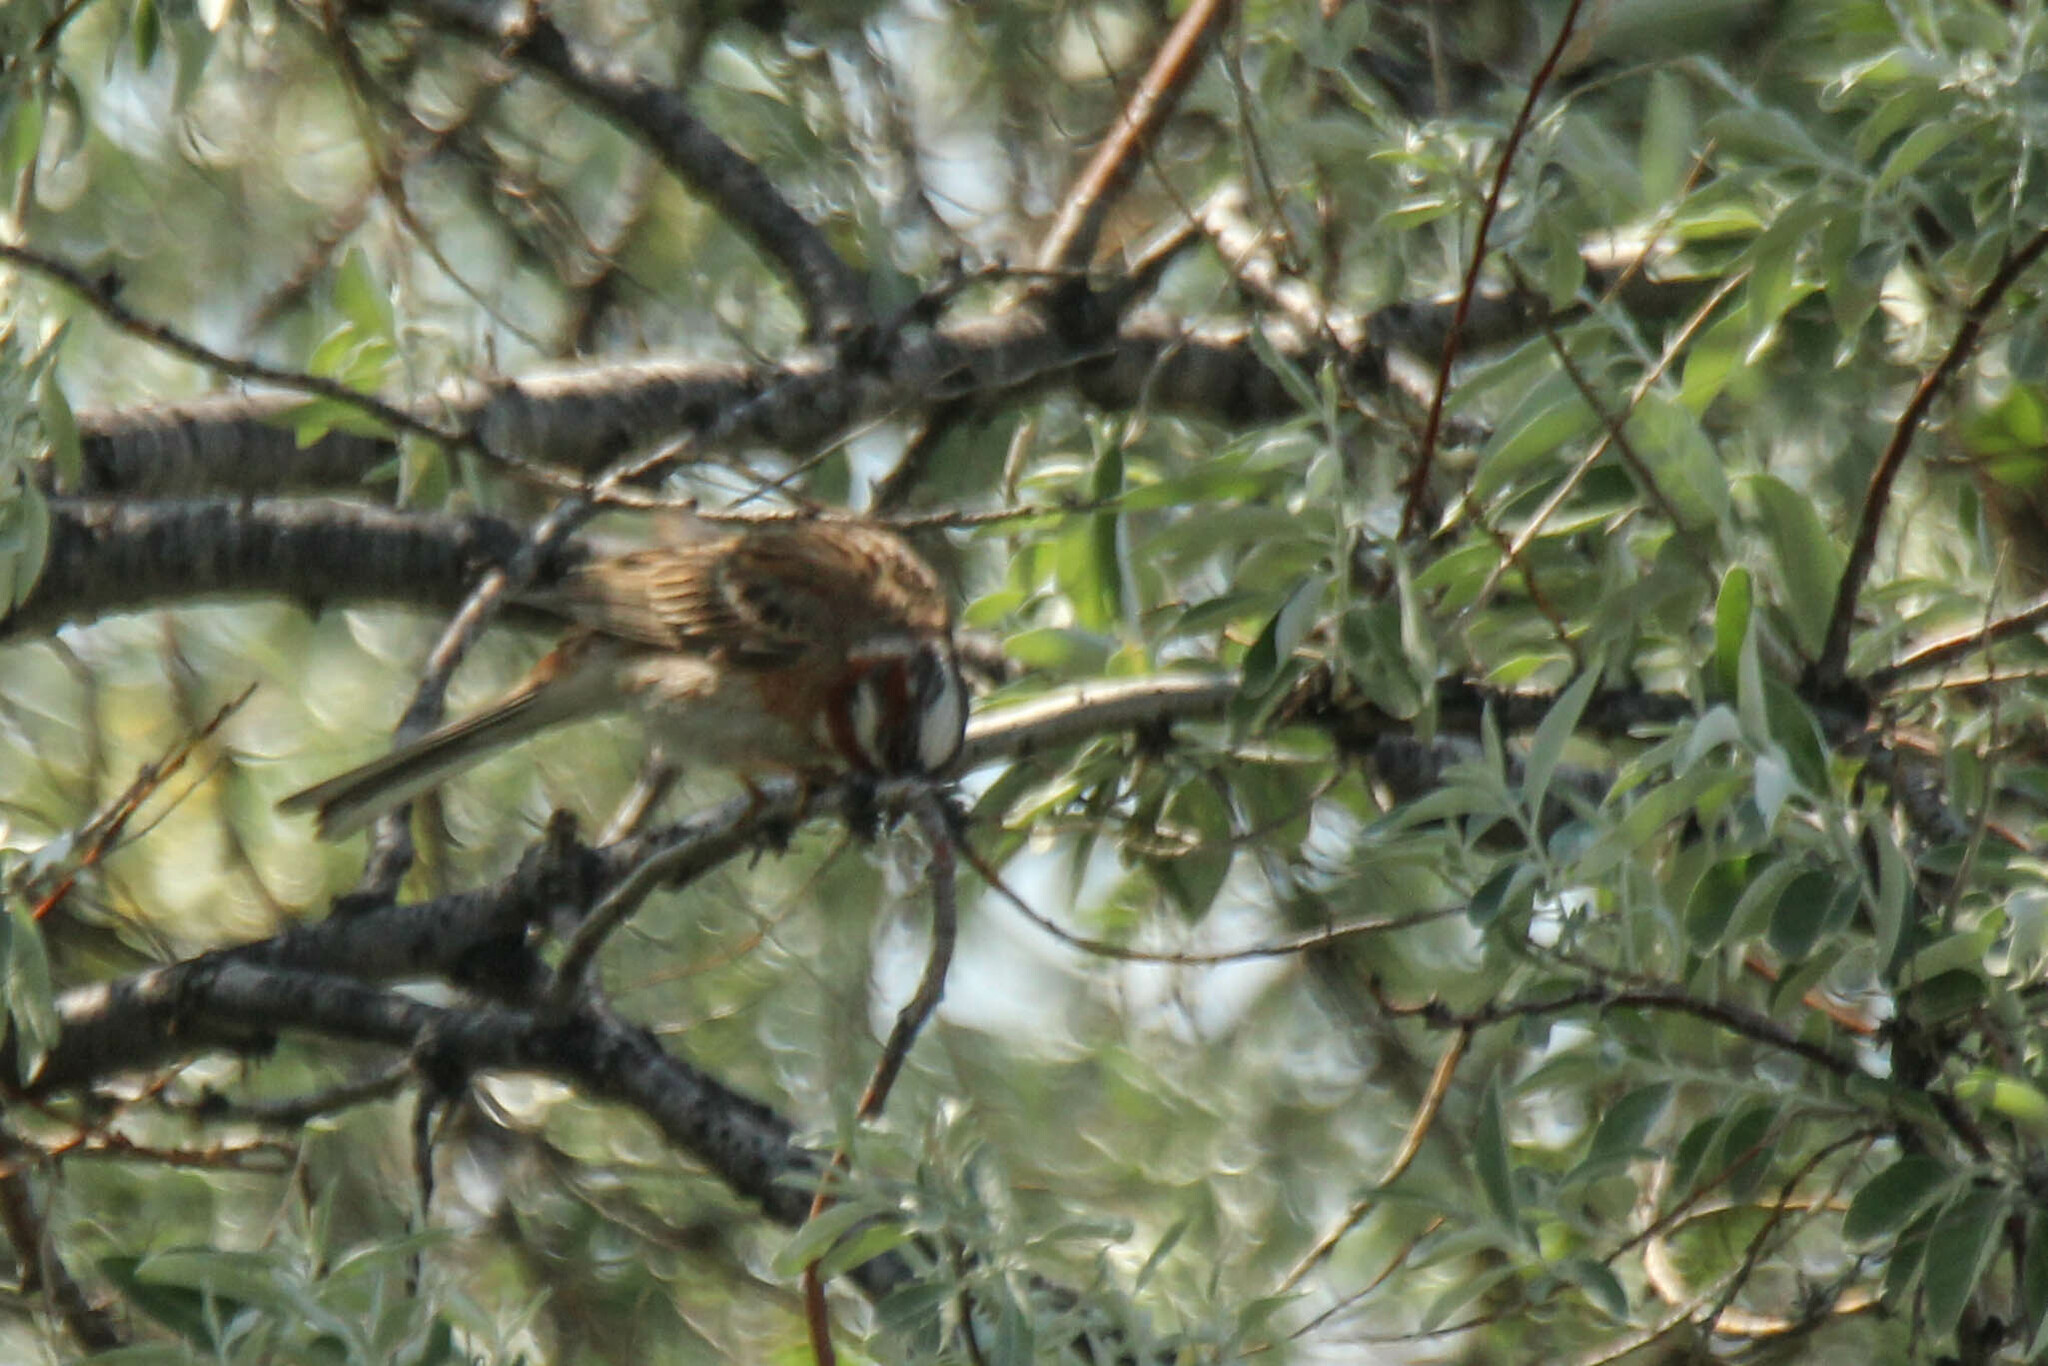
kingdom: Animalia
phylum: Chordata
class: Aves
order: Passeriformes
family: Emberizidae
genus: Emberiza
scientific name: Emberiza leucocephalos
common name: Pine bunting
